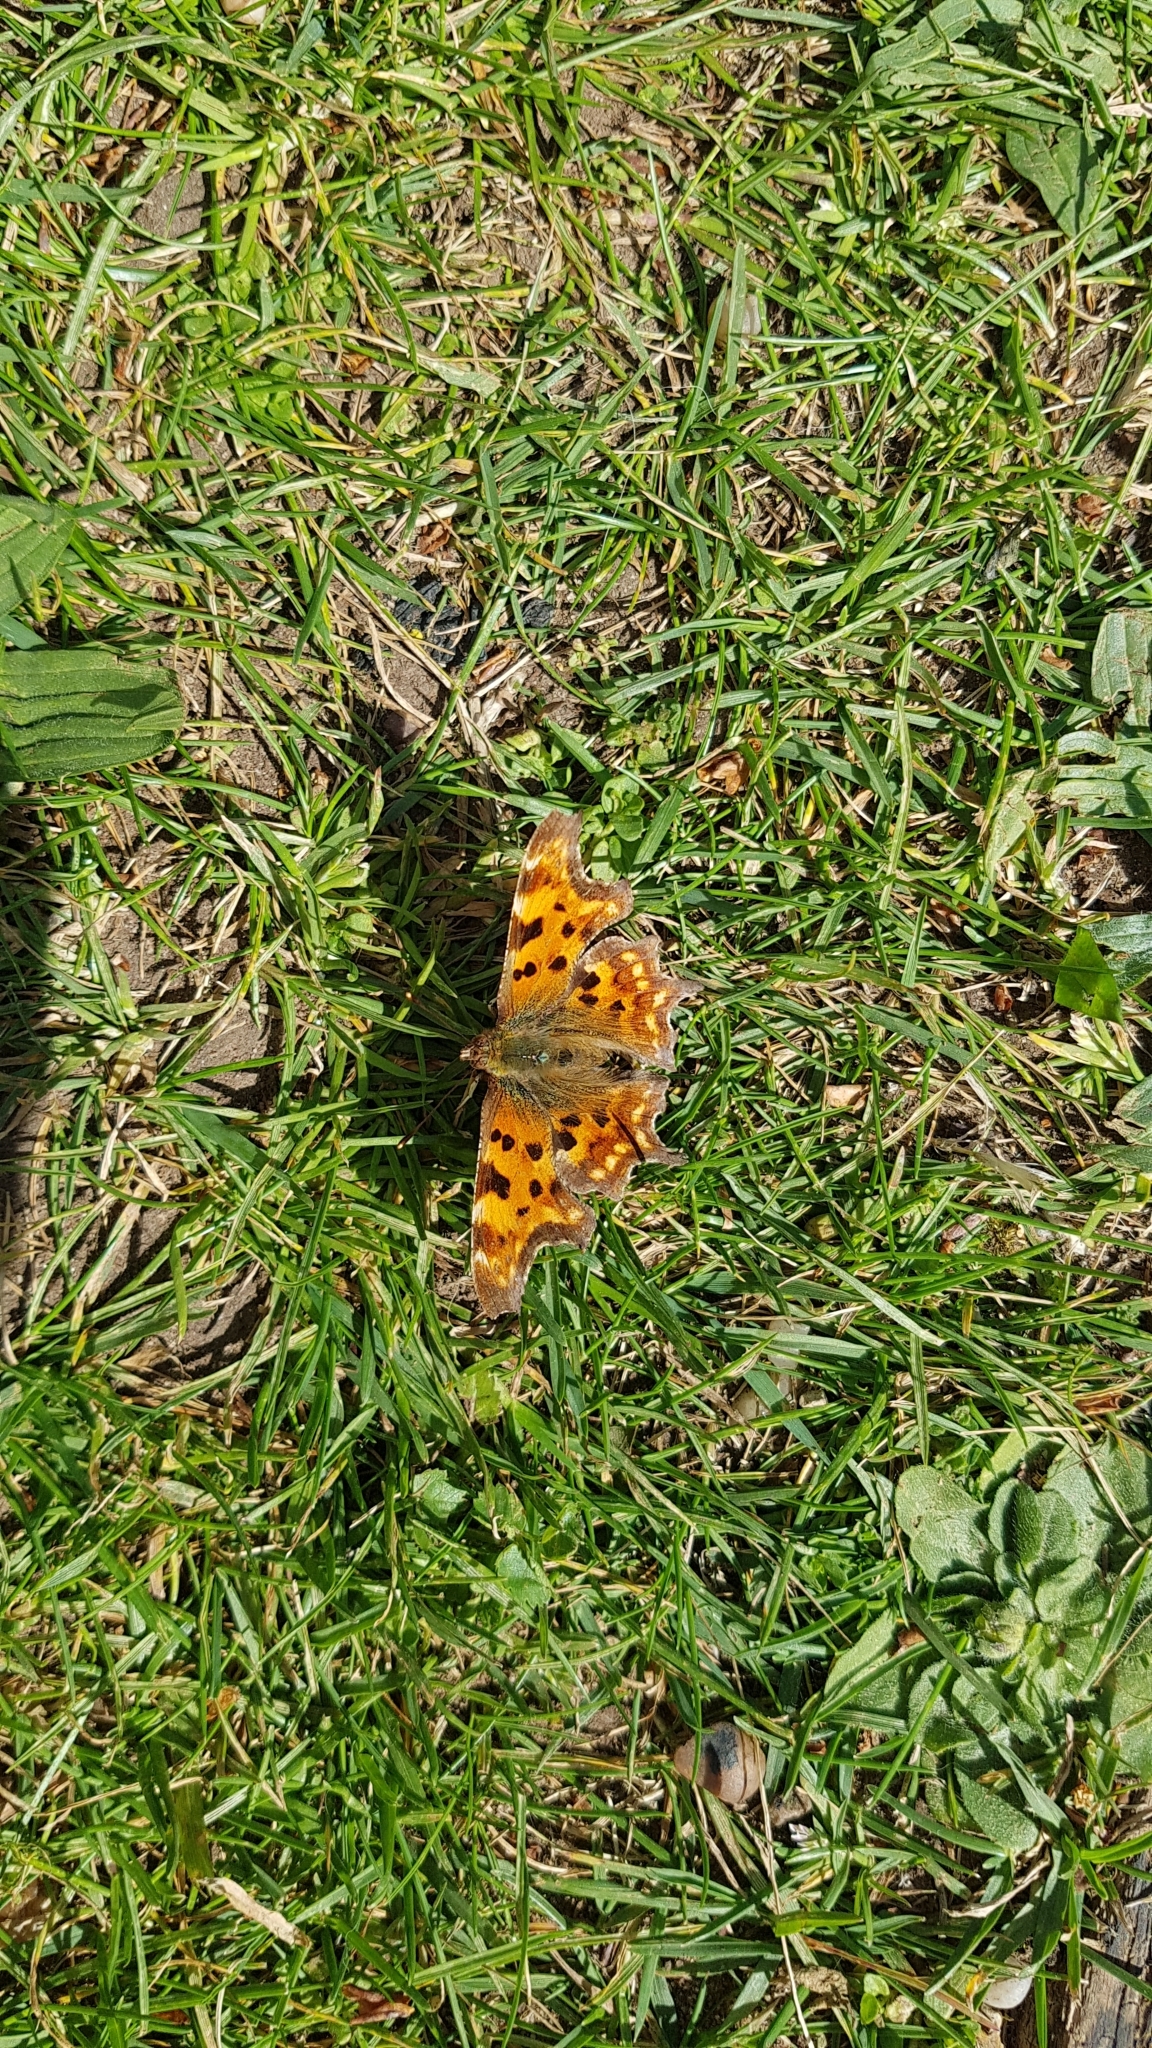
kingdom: Animalia
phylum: Arthropoda
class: Insecta
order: Lepidoptera
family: Nymphalidae
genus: Polygonia
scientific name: Polygonia c-album
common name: Comma
